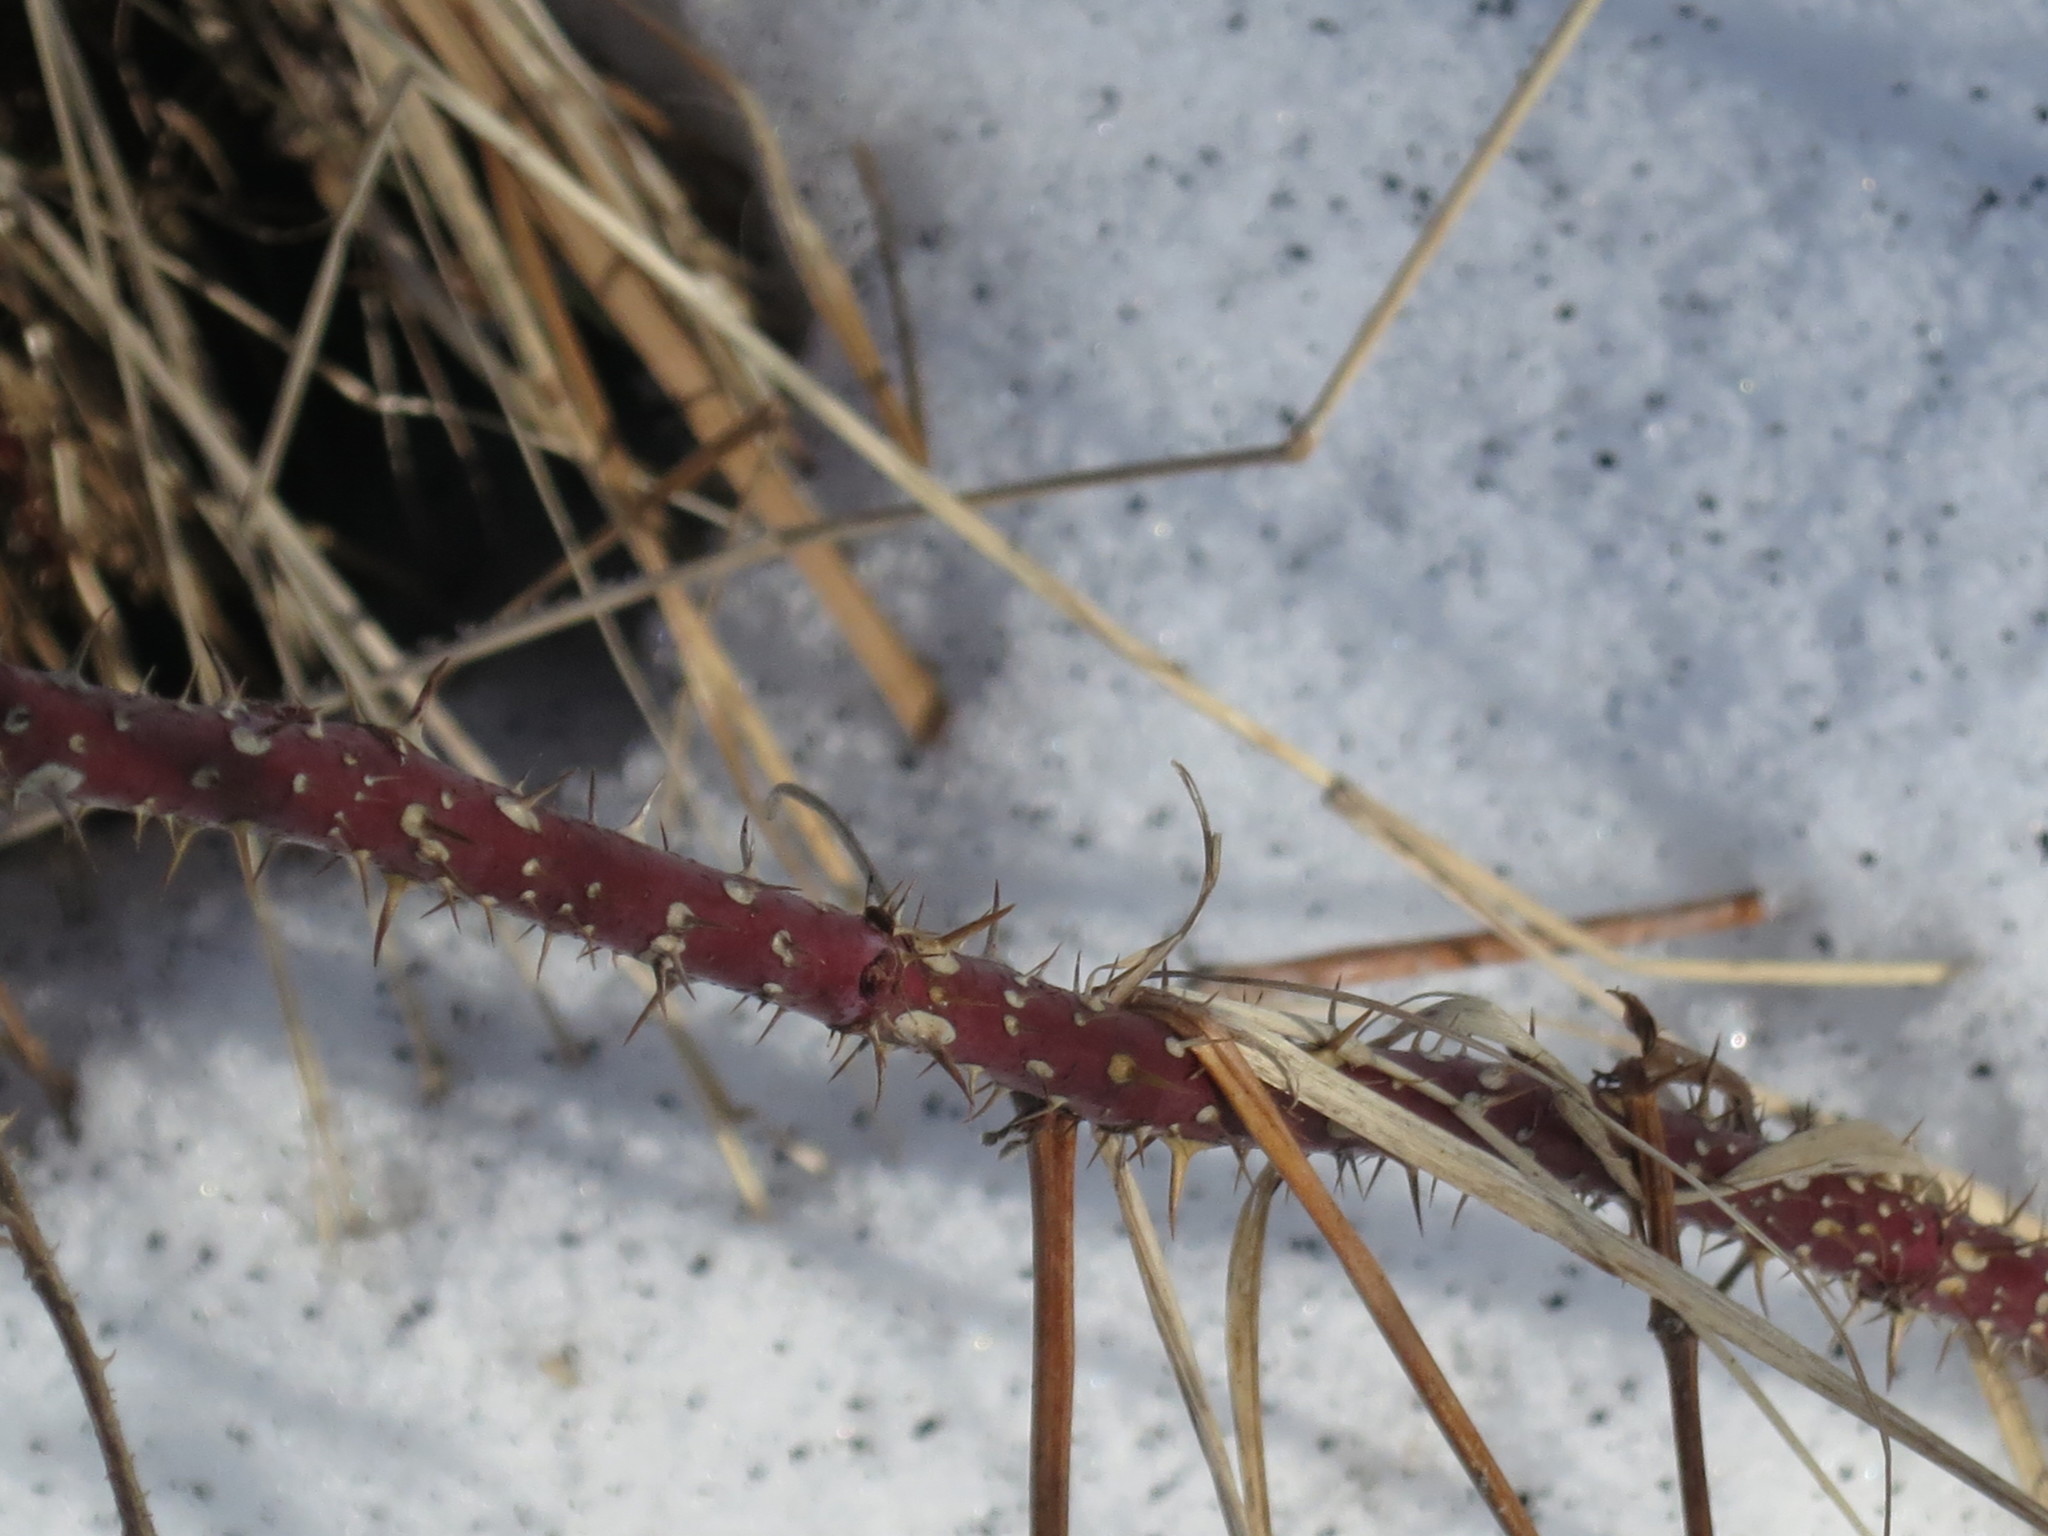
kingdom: Plantae
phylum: Tracheophyta
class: Magnoliopsida
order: Rosales
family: Rosaceae
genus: Rosa
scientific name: Rosa davurica
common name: Amur rose
